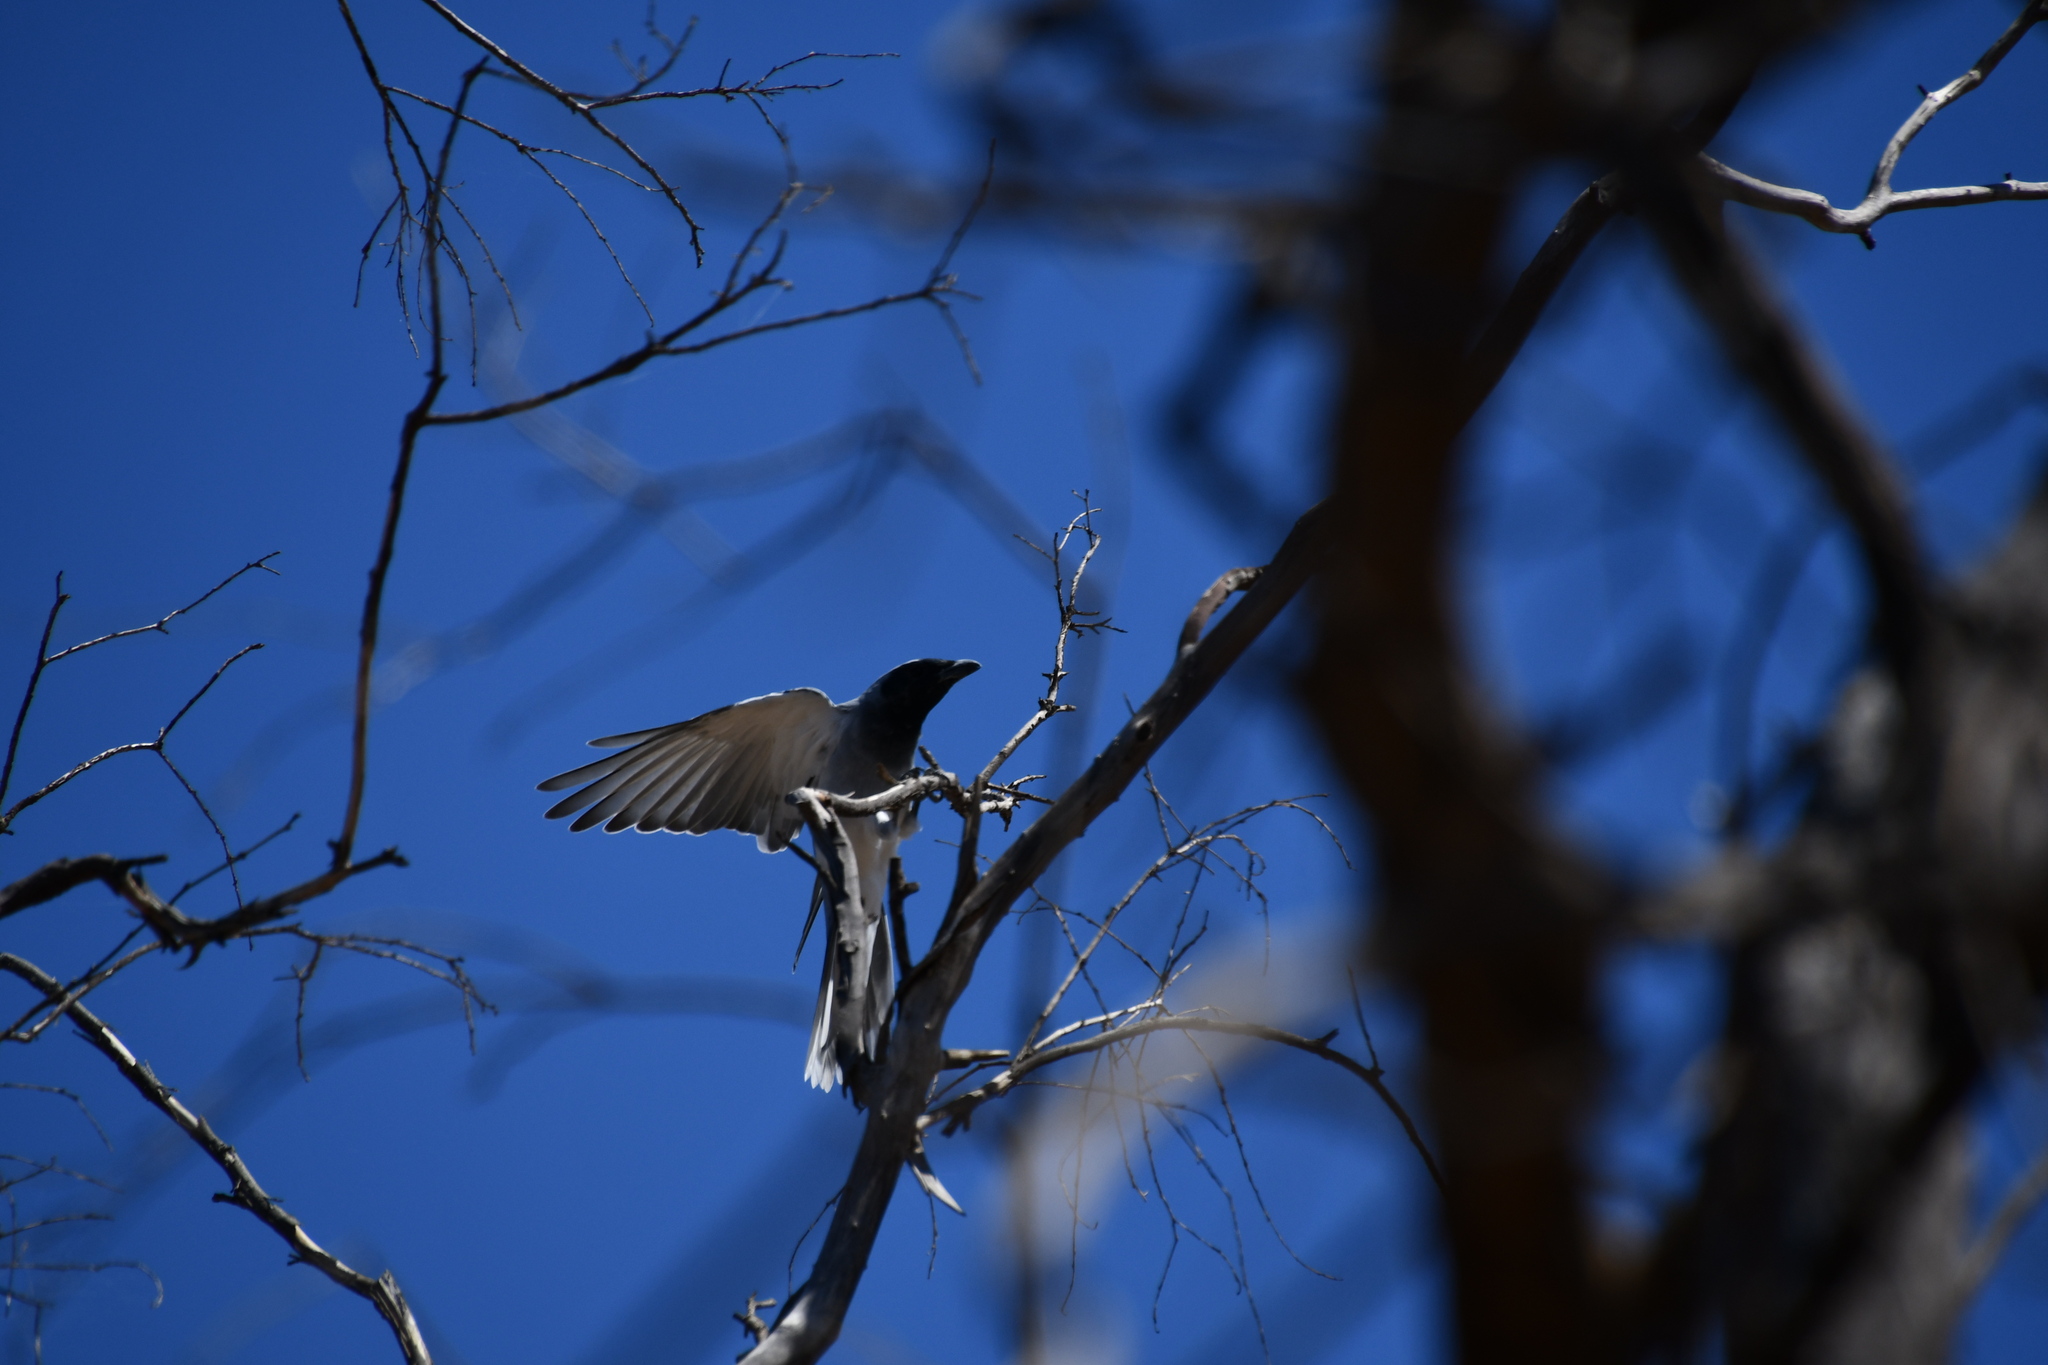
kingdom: Animalia
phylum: Chordata
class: Aves
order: Passeriformes
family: Campephagidae
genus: Coracina
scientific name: Coracina novaehollandiae
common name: Black-faced cuckooshrike
